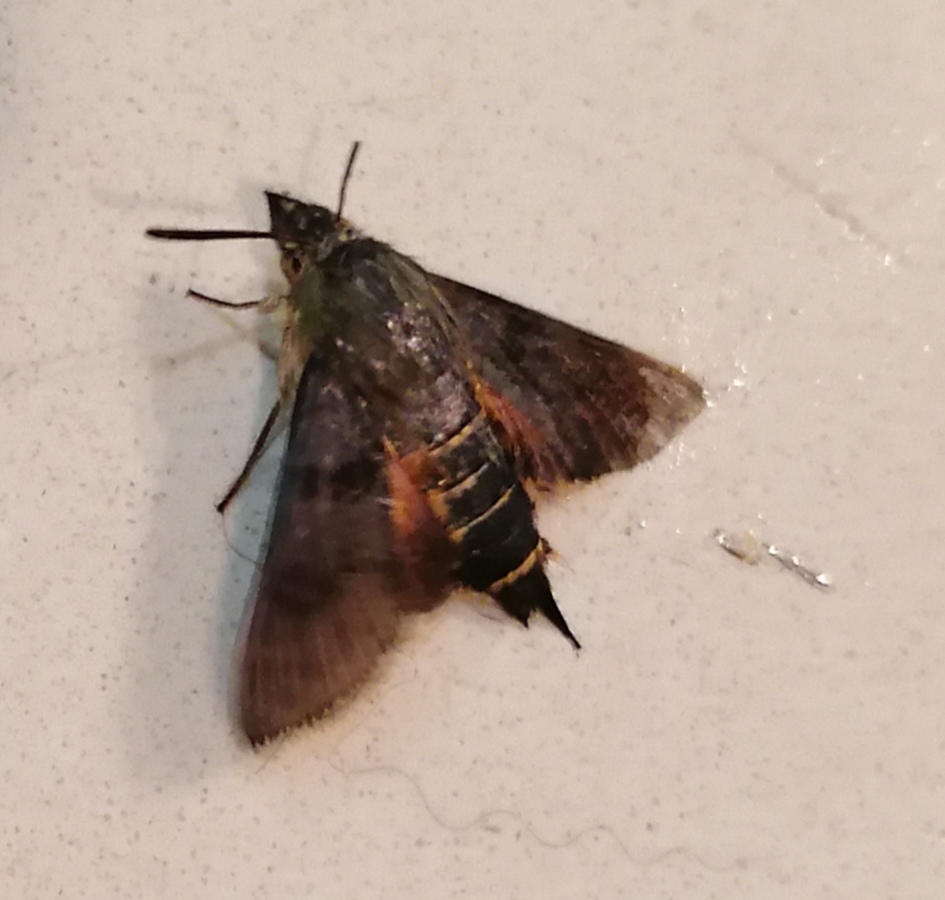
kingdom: Animalia
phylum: Arthropoda
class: Insecta
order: Lepidoptera
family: Sphingidae
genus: Macroglossum
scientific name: Macroglossum trochilus
